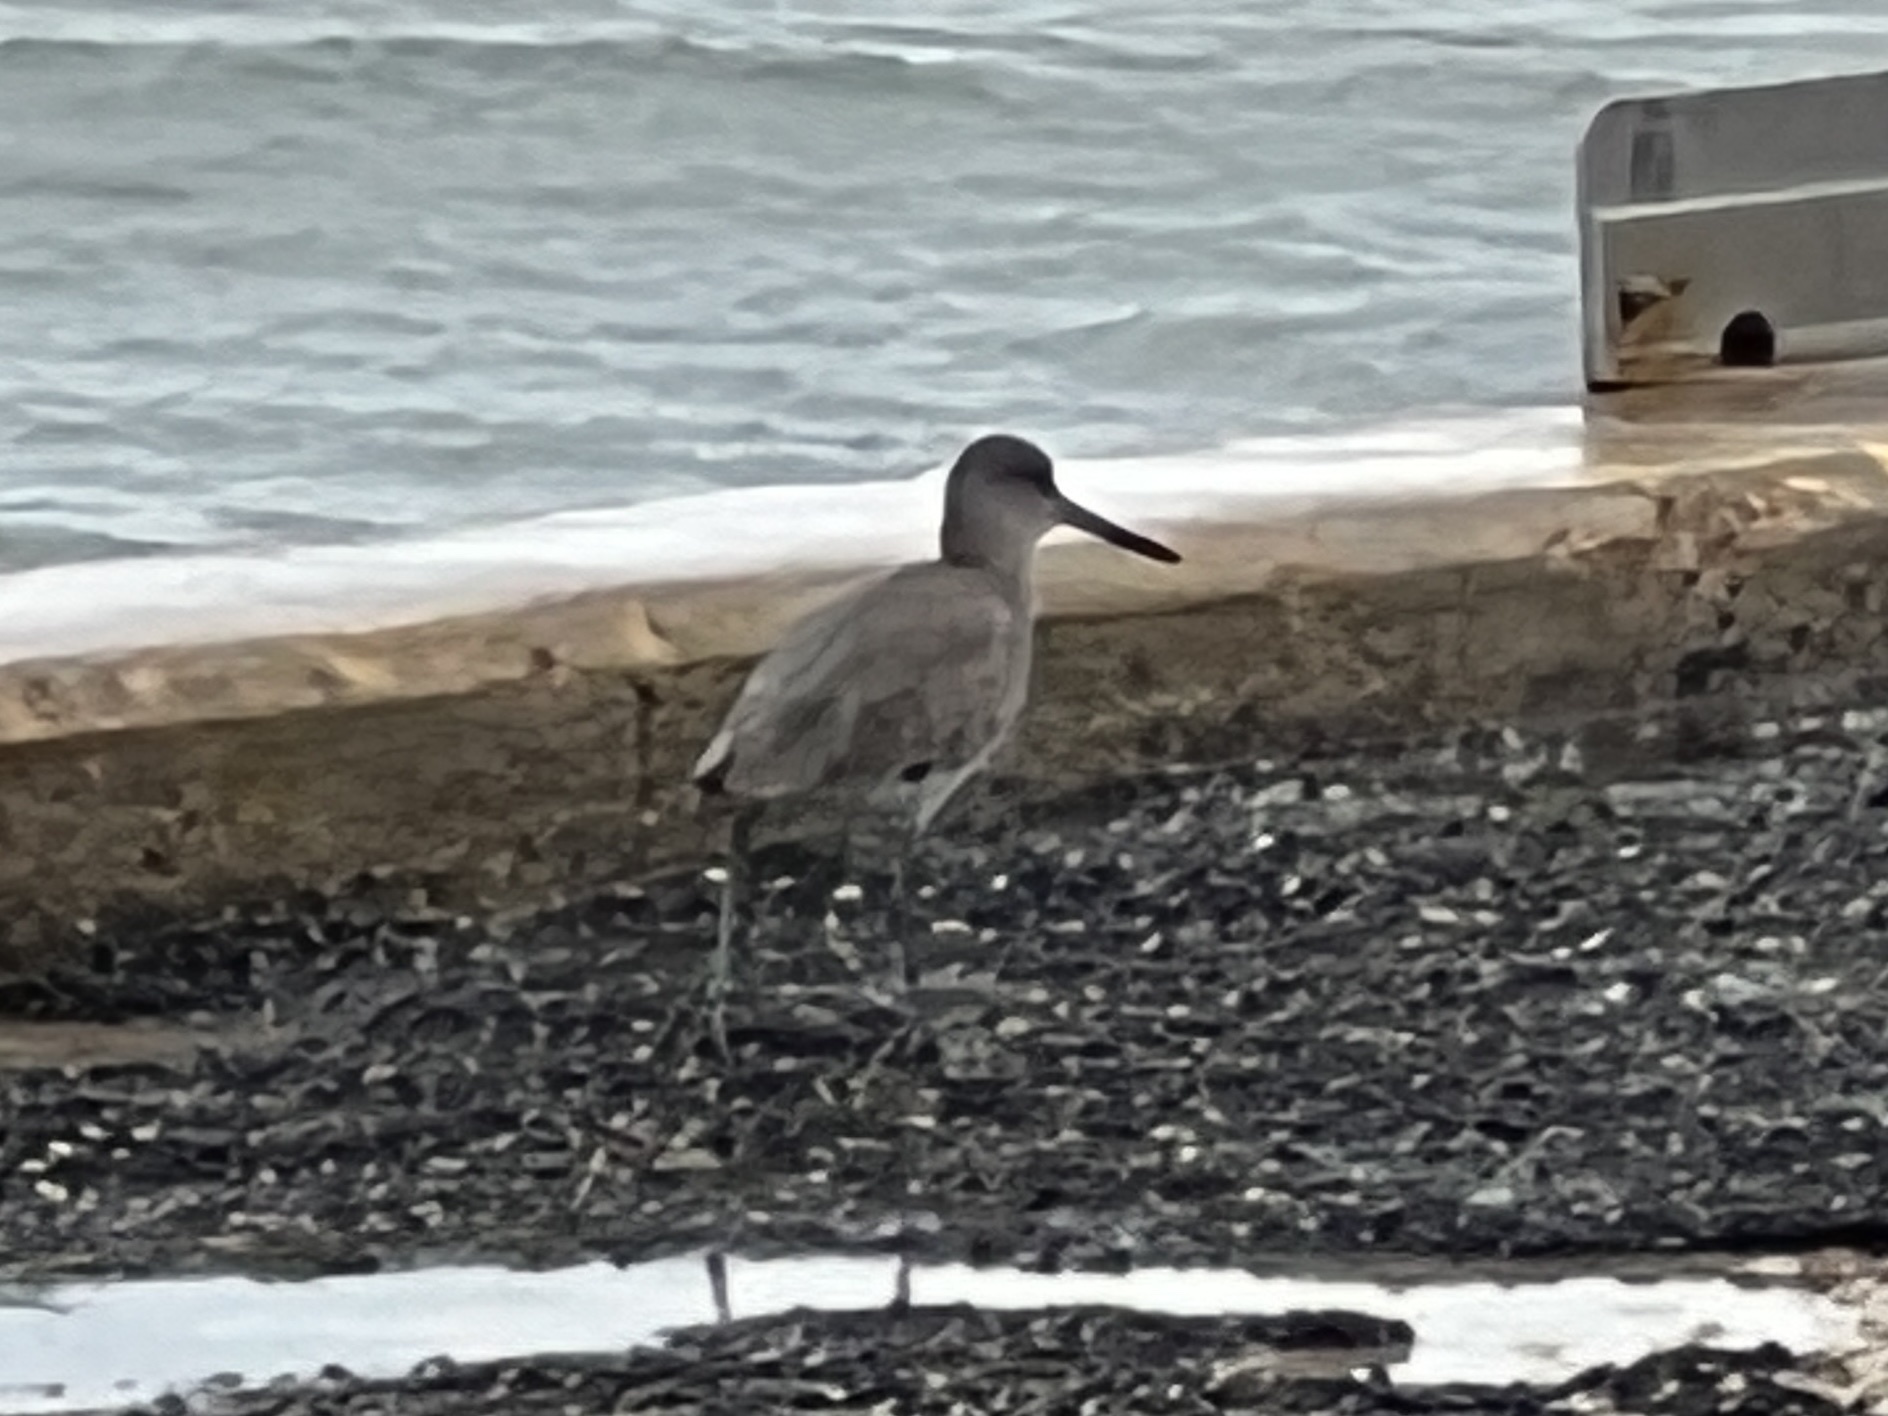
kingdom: Animalia
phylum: Chordata
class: Aves
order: Charadriiformes
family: Scolopacidae
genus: Tringa
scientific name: Tringa semipalmata
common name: Willet
